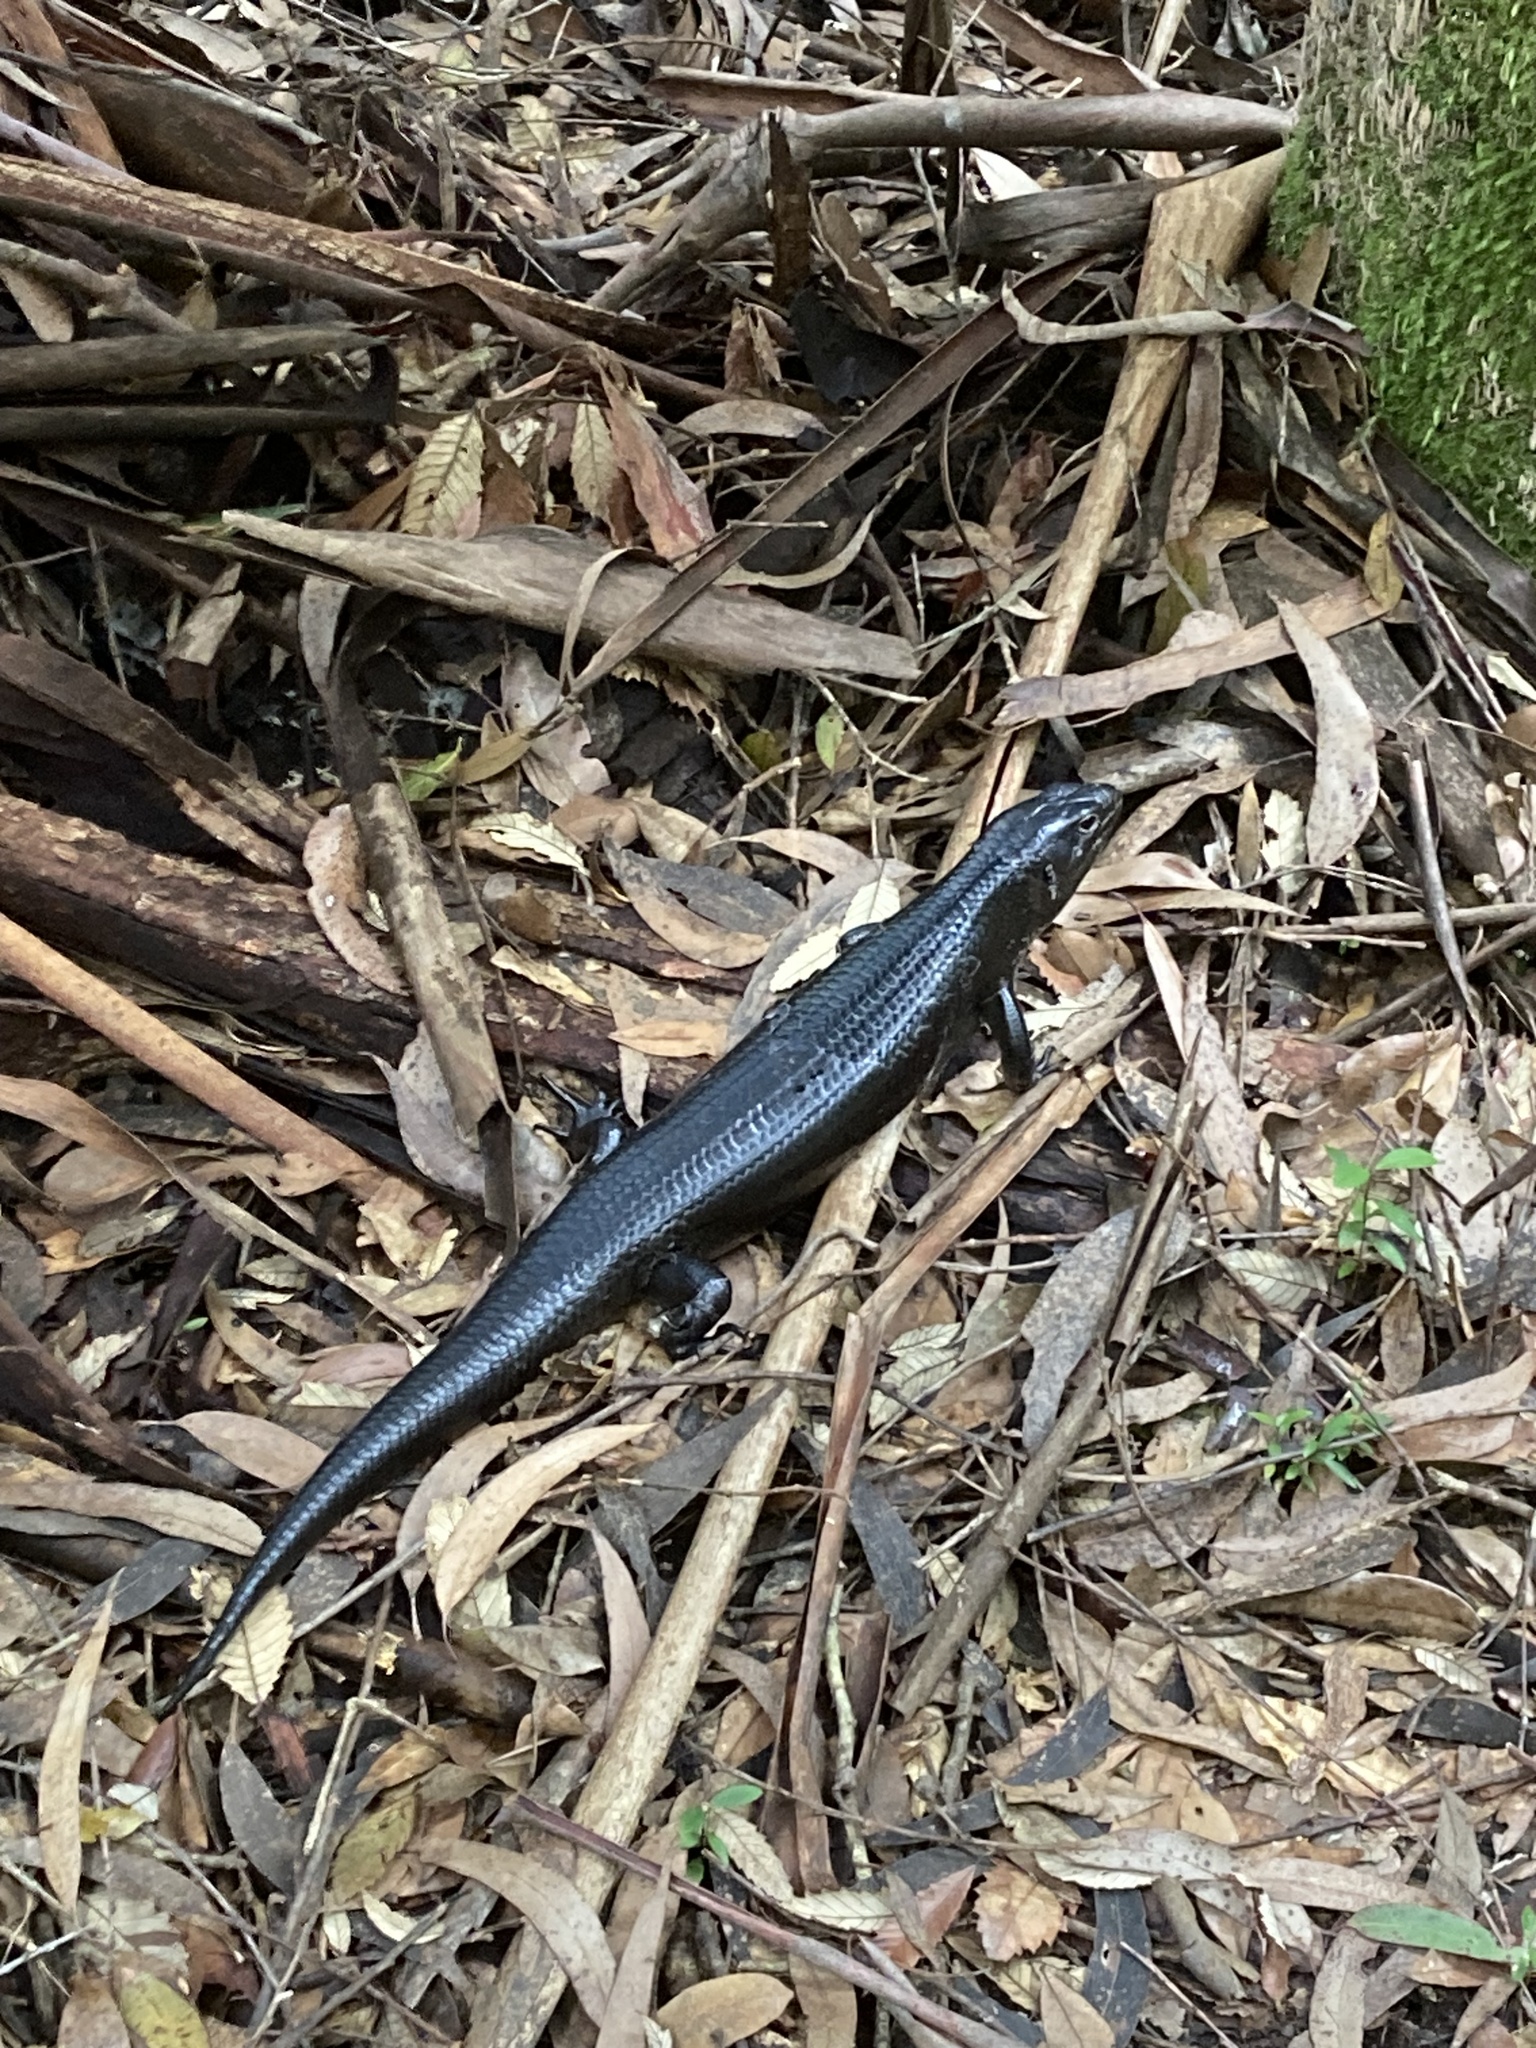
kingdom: Animalia
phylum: Chordata
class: Squamata
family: Scincidae
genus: Bellatorias
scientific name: Bellatorias major
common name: Land mullet
